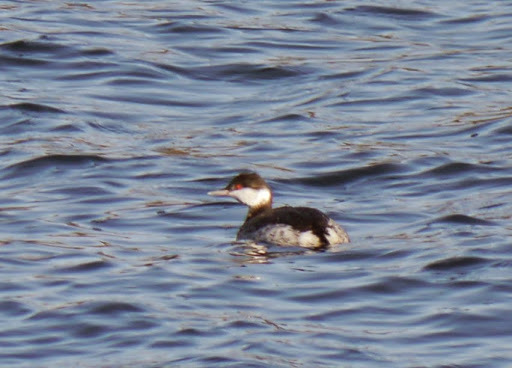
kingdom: Animalia
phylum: Chordata
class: Aves
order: Podicipediformes
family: Podicipedidae
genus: Podiceps
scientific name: Podiceps auritus
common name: Horned grebe
